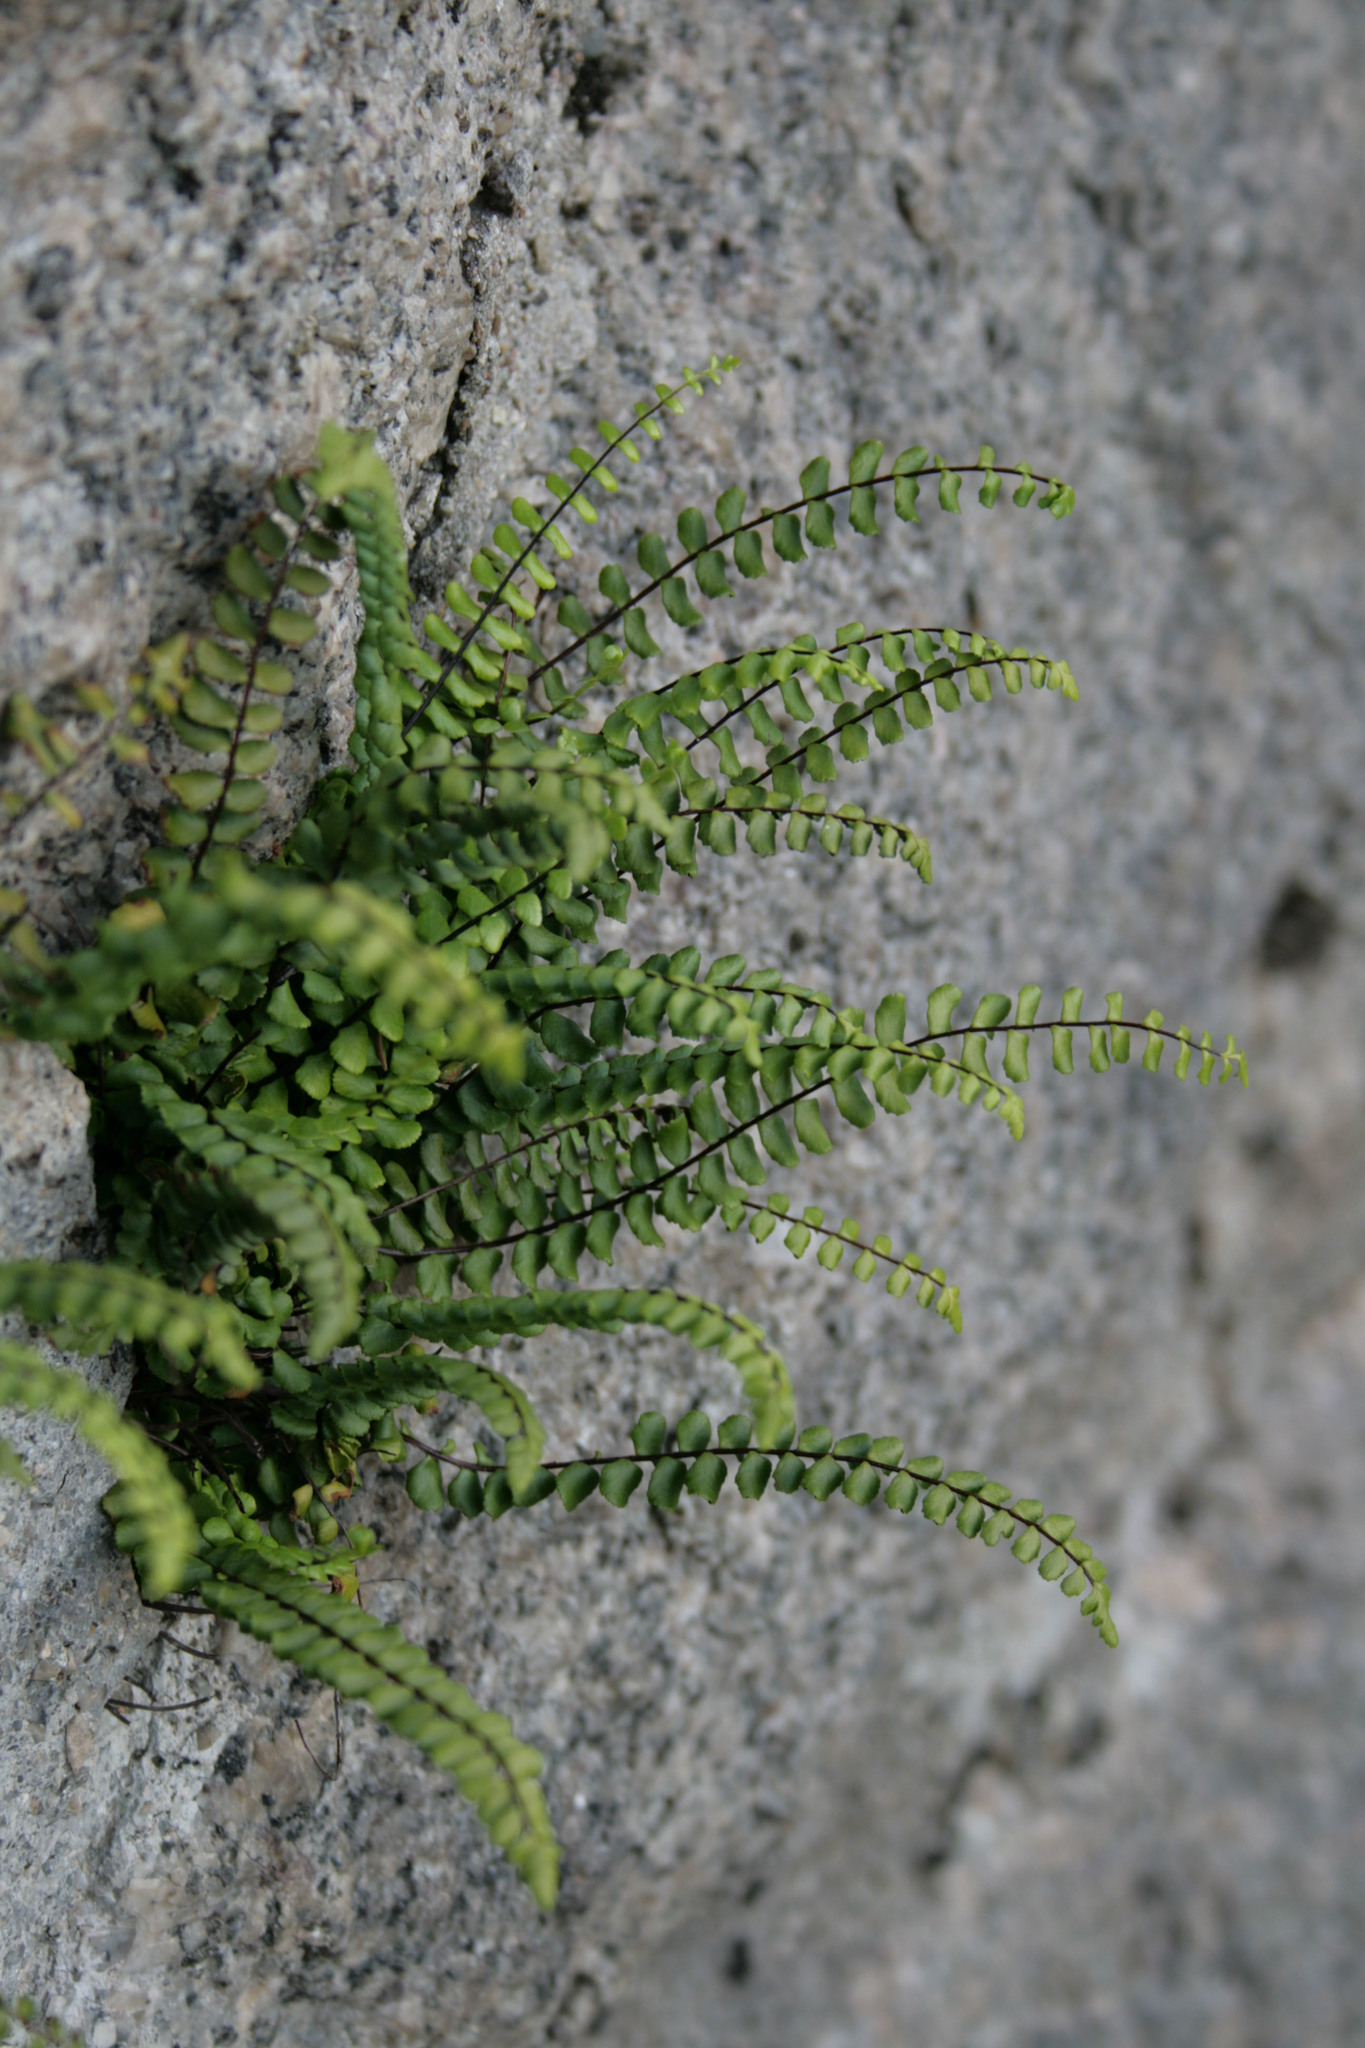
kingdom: Plantae
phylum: Tracheophyta
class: Polypodiopsida
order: Polypodiales
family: Aspleniaceae
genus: Asplenium
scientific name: Asplenium trichomanes
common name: Maidenhair spleenwort
